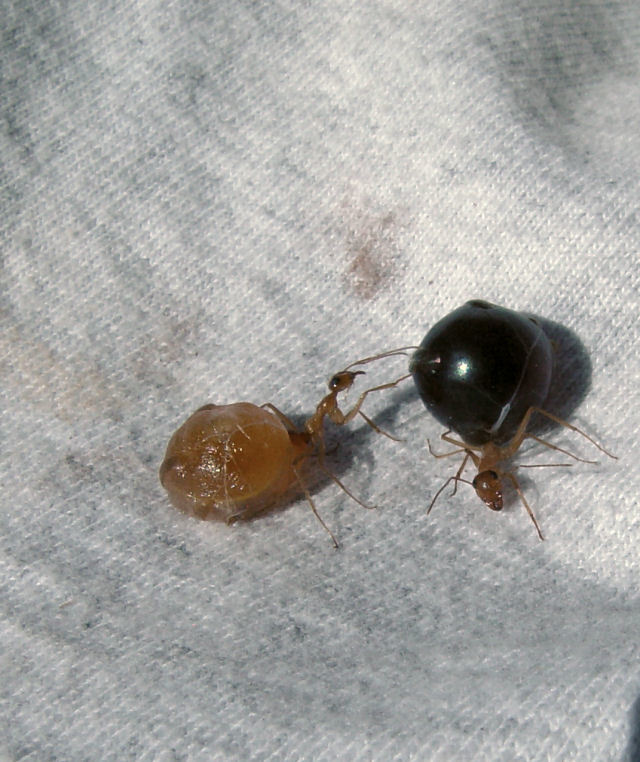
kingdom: Animalia
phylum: Arthropoda
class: Insecta
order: Hymenoptera
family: Formicidae
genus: Myrmecocystus
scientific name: Myrmecocystus mexicanus
